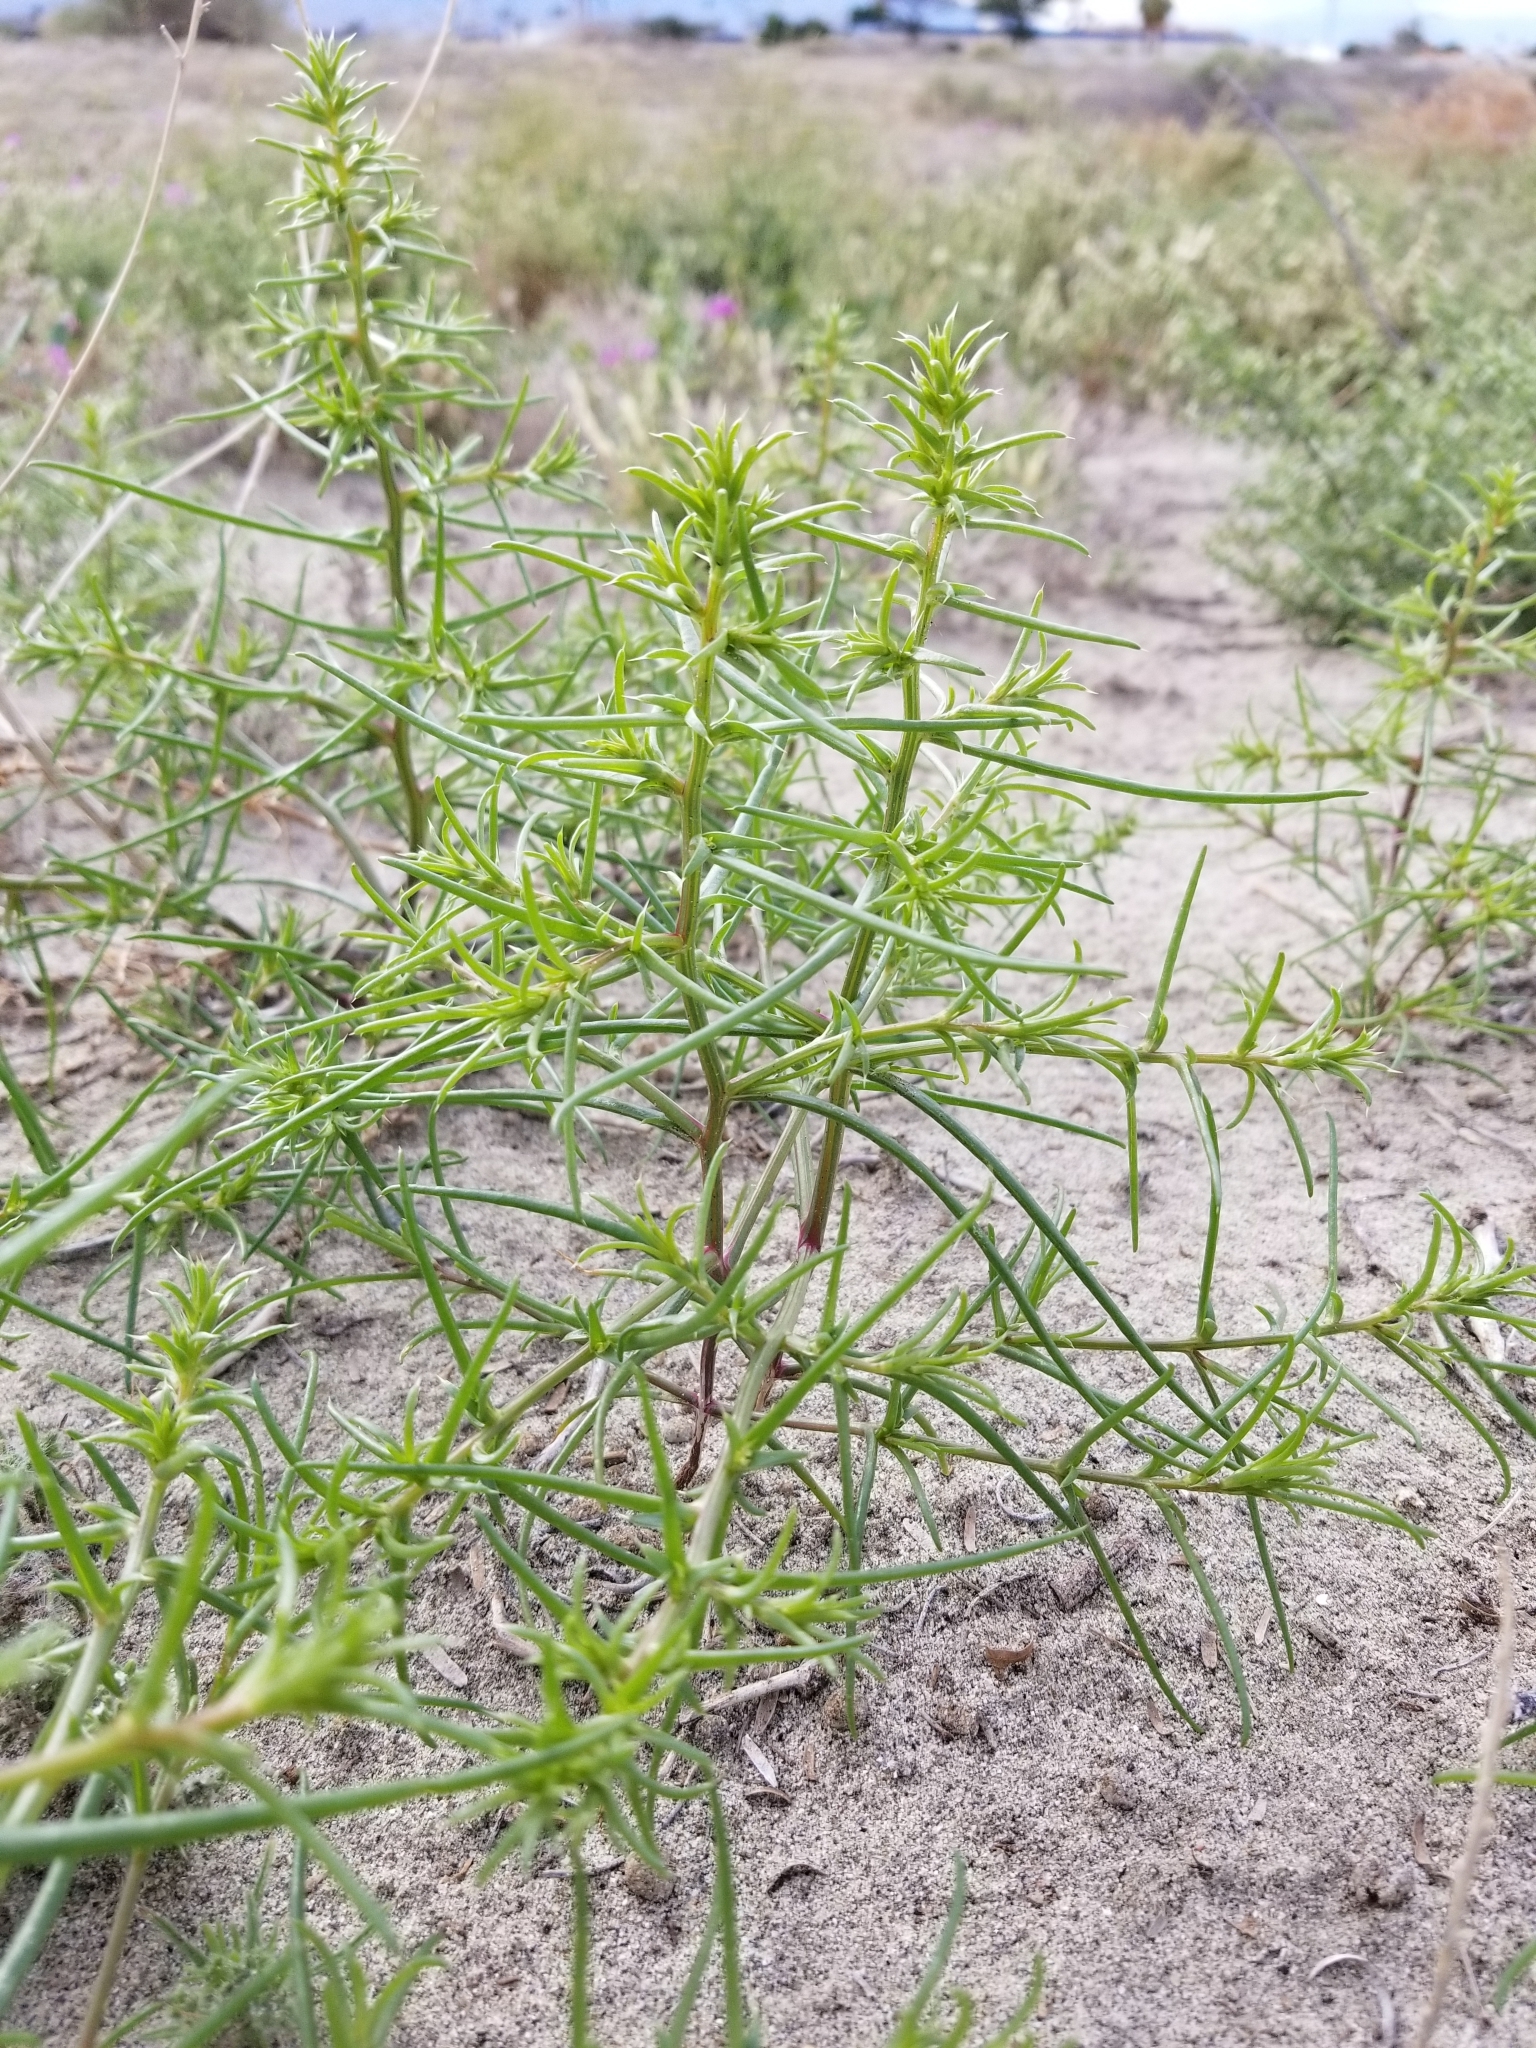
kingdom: Plantae
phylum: Tracheophyta
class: Magnoliopsida
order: Caryophyllales
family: Amaranthaceae
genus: Salsola
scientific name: Salsola tragus
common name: Prickly russian thistle
